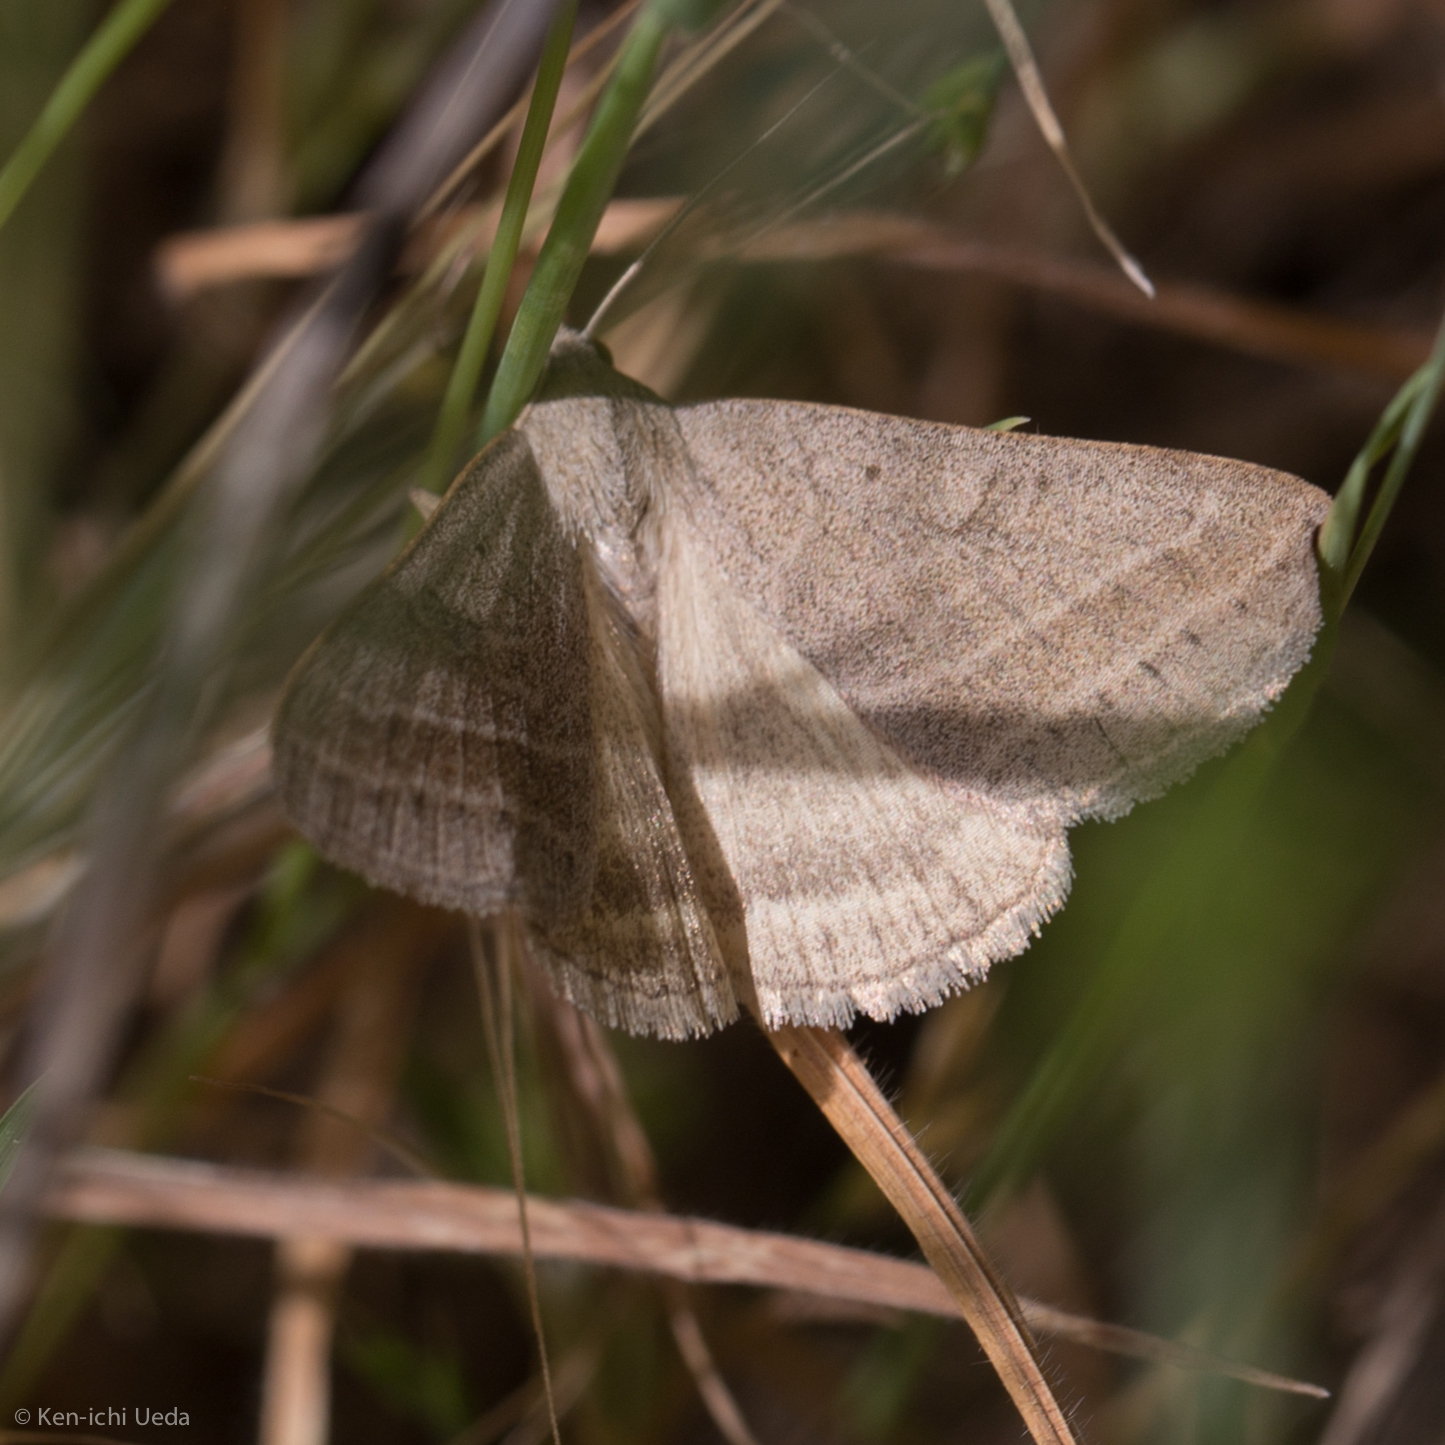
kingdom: Animalia
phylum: Arthropoda
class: Insecta
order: Lepidoptera
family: Erebidae
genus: Caenurgia
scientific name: Caenurgia togataria
